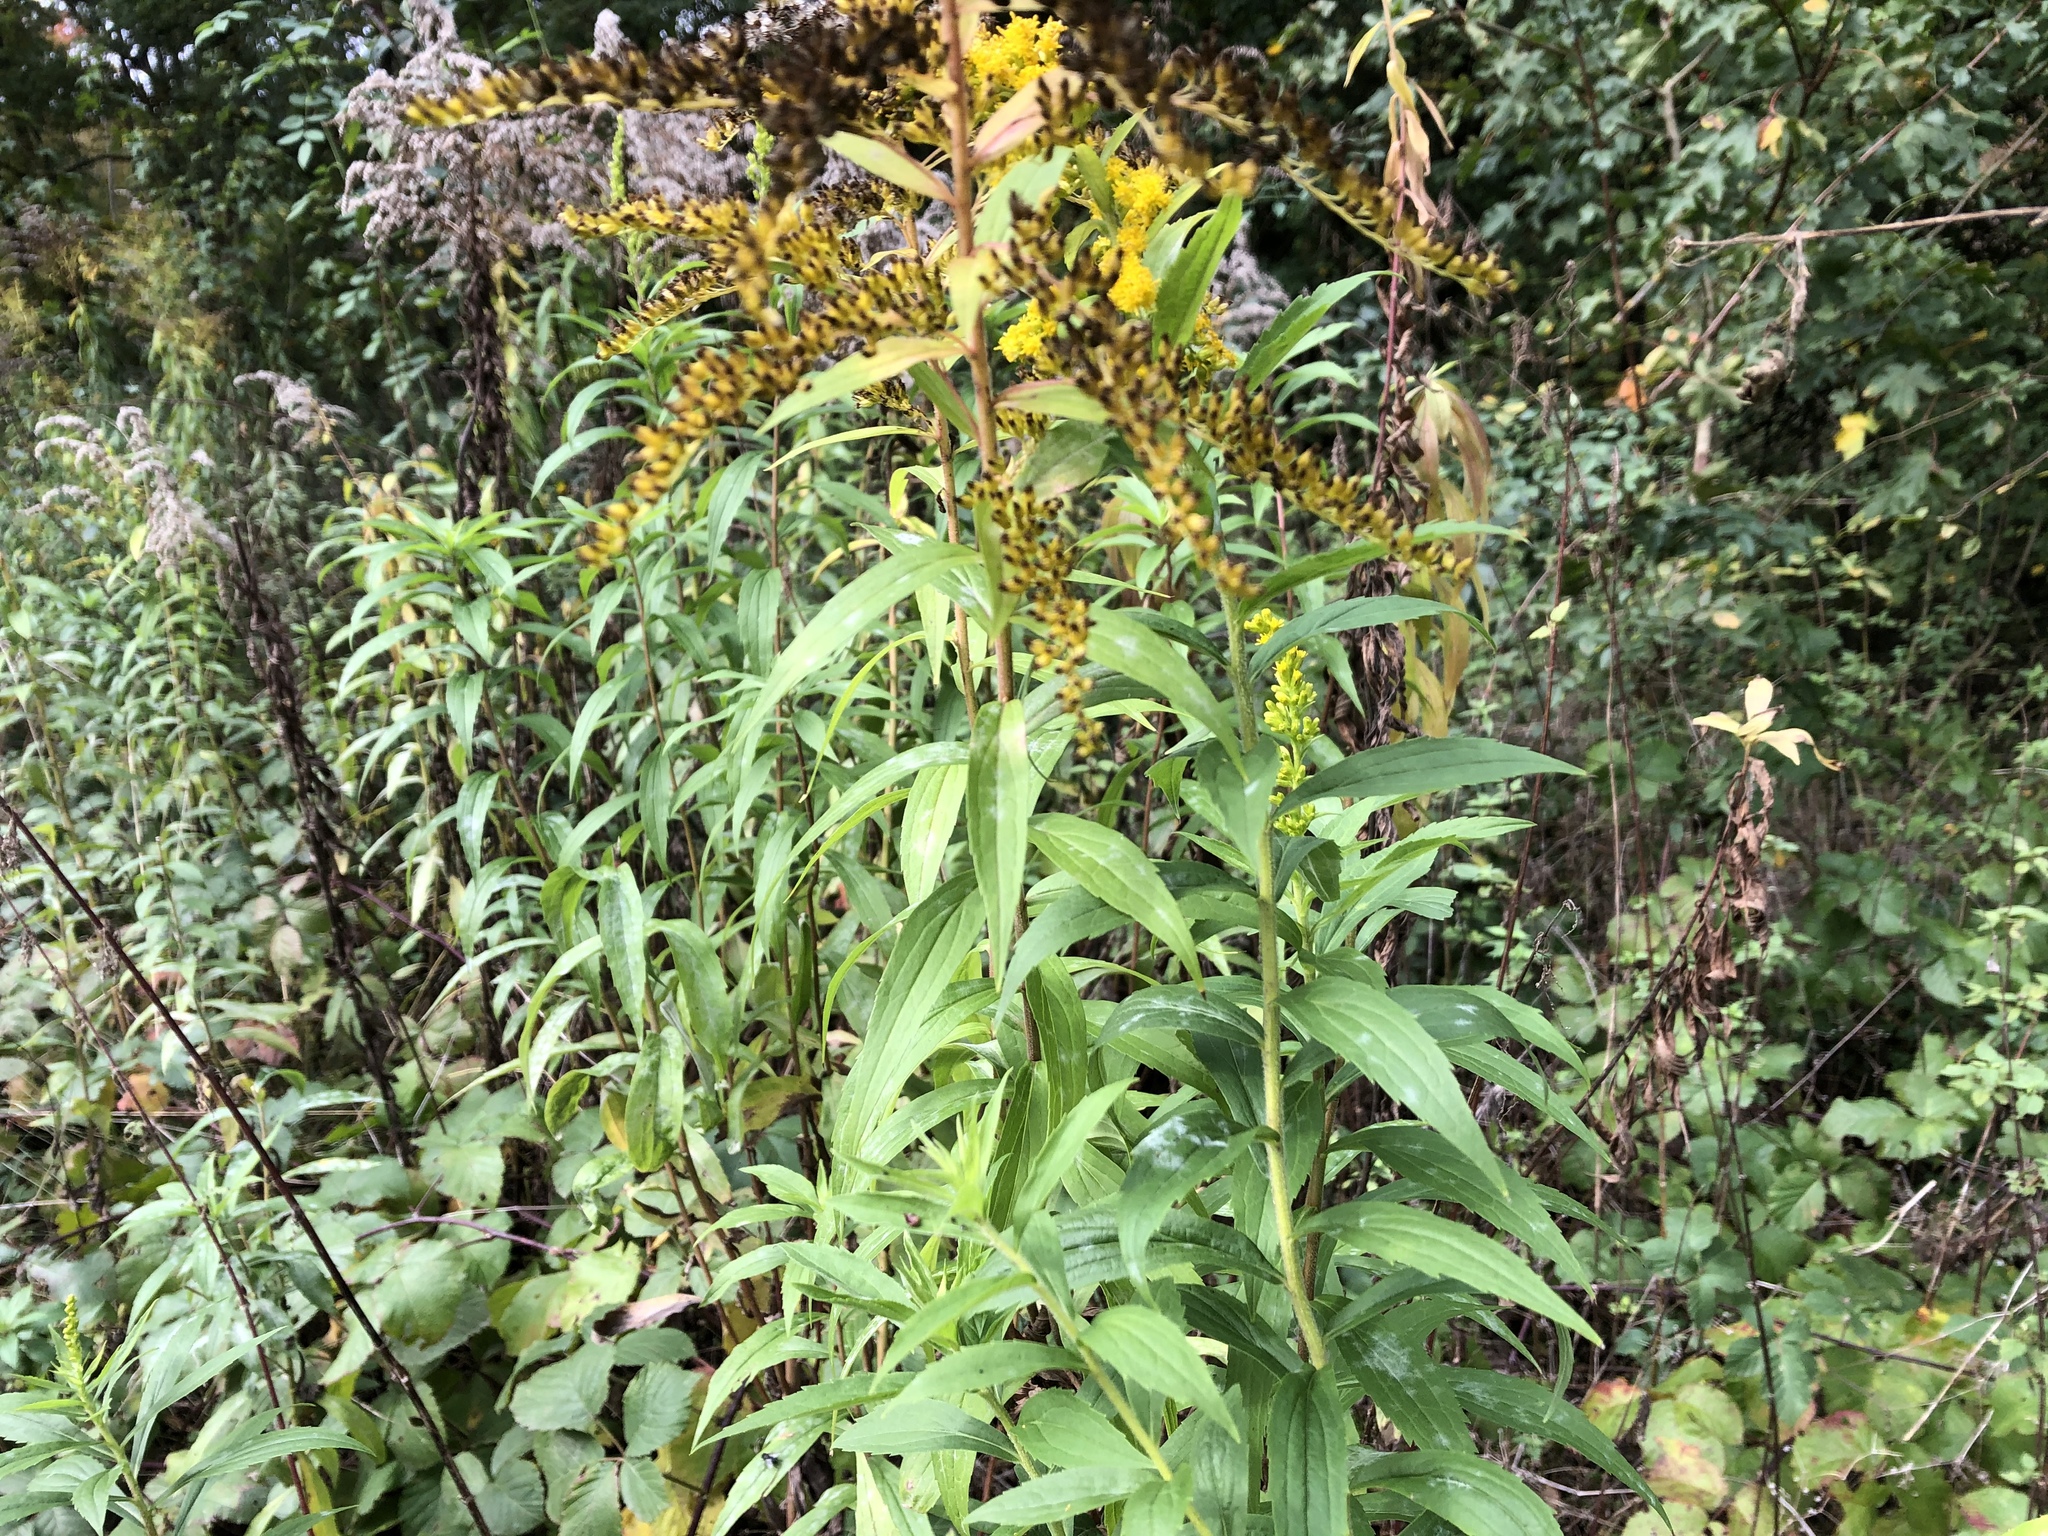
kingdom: Plantae
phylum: Tracheophyta
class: Magnoliopsida
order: Asterales
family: Asteraceae
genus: Solidago
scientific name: Solidago canadensis
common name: Canada goldenrod
